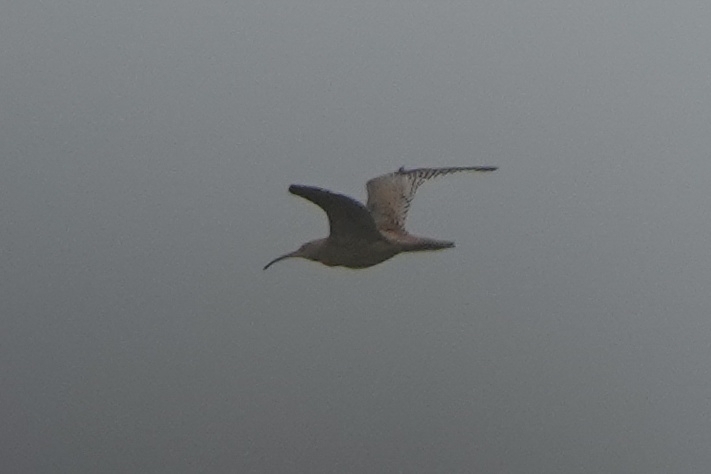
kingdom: Animalia
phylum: Chordata
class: Aves
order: Charadriiformes
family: Scolopacidae
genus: Numenius
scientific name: Numenius madagascariensis
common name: Far eastern curlew
